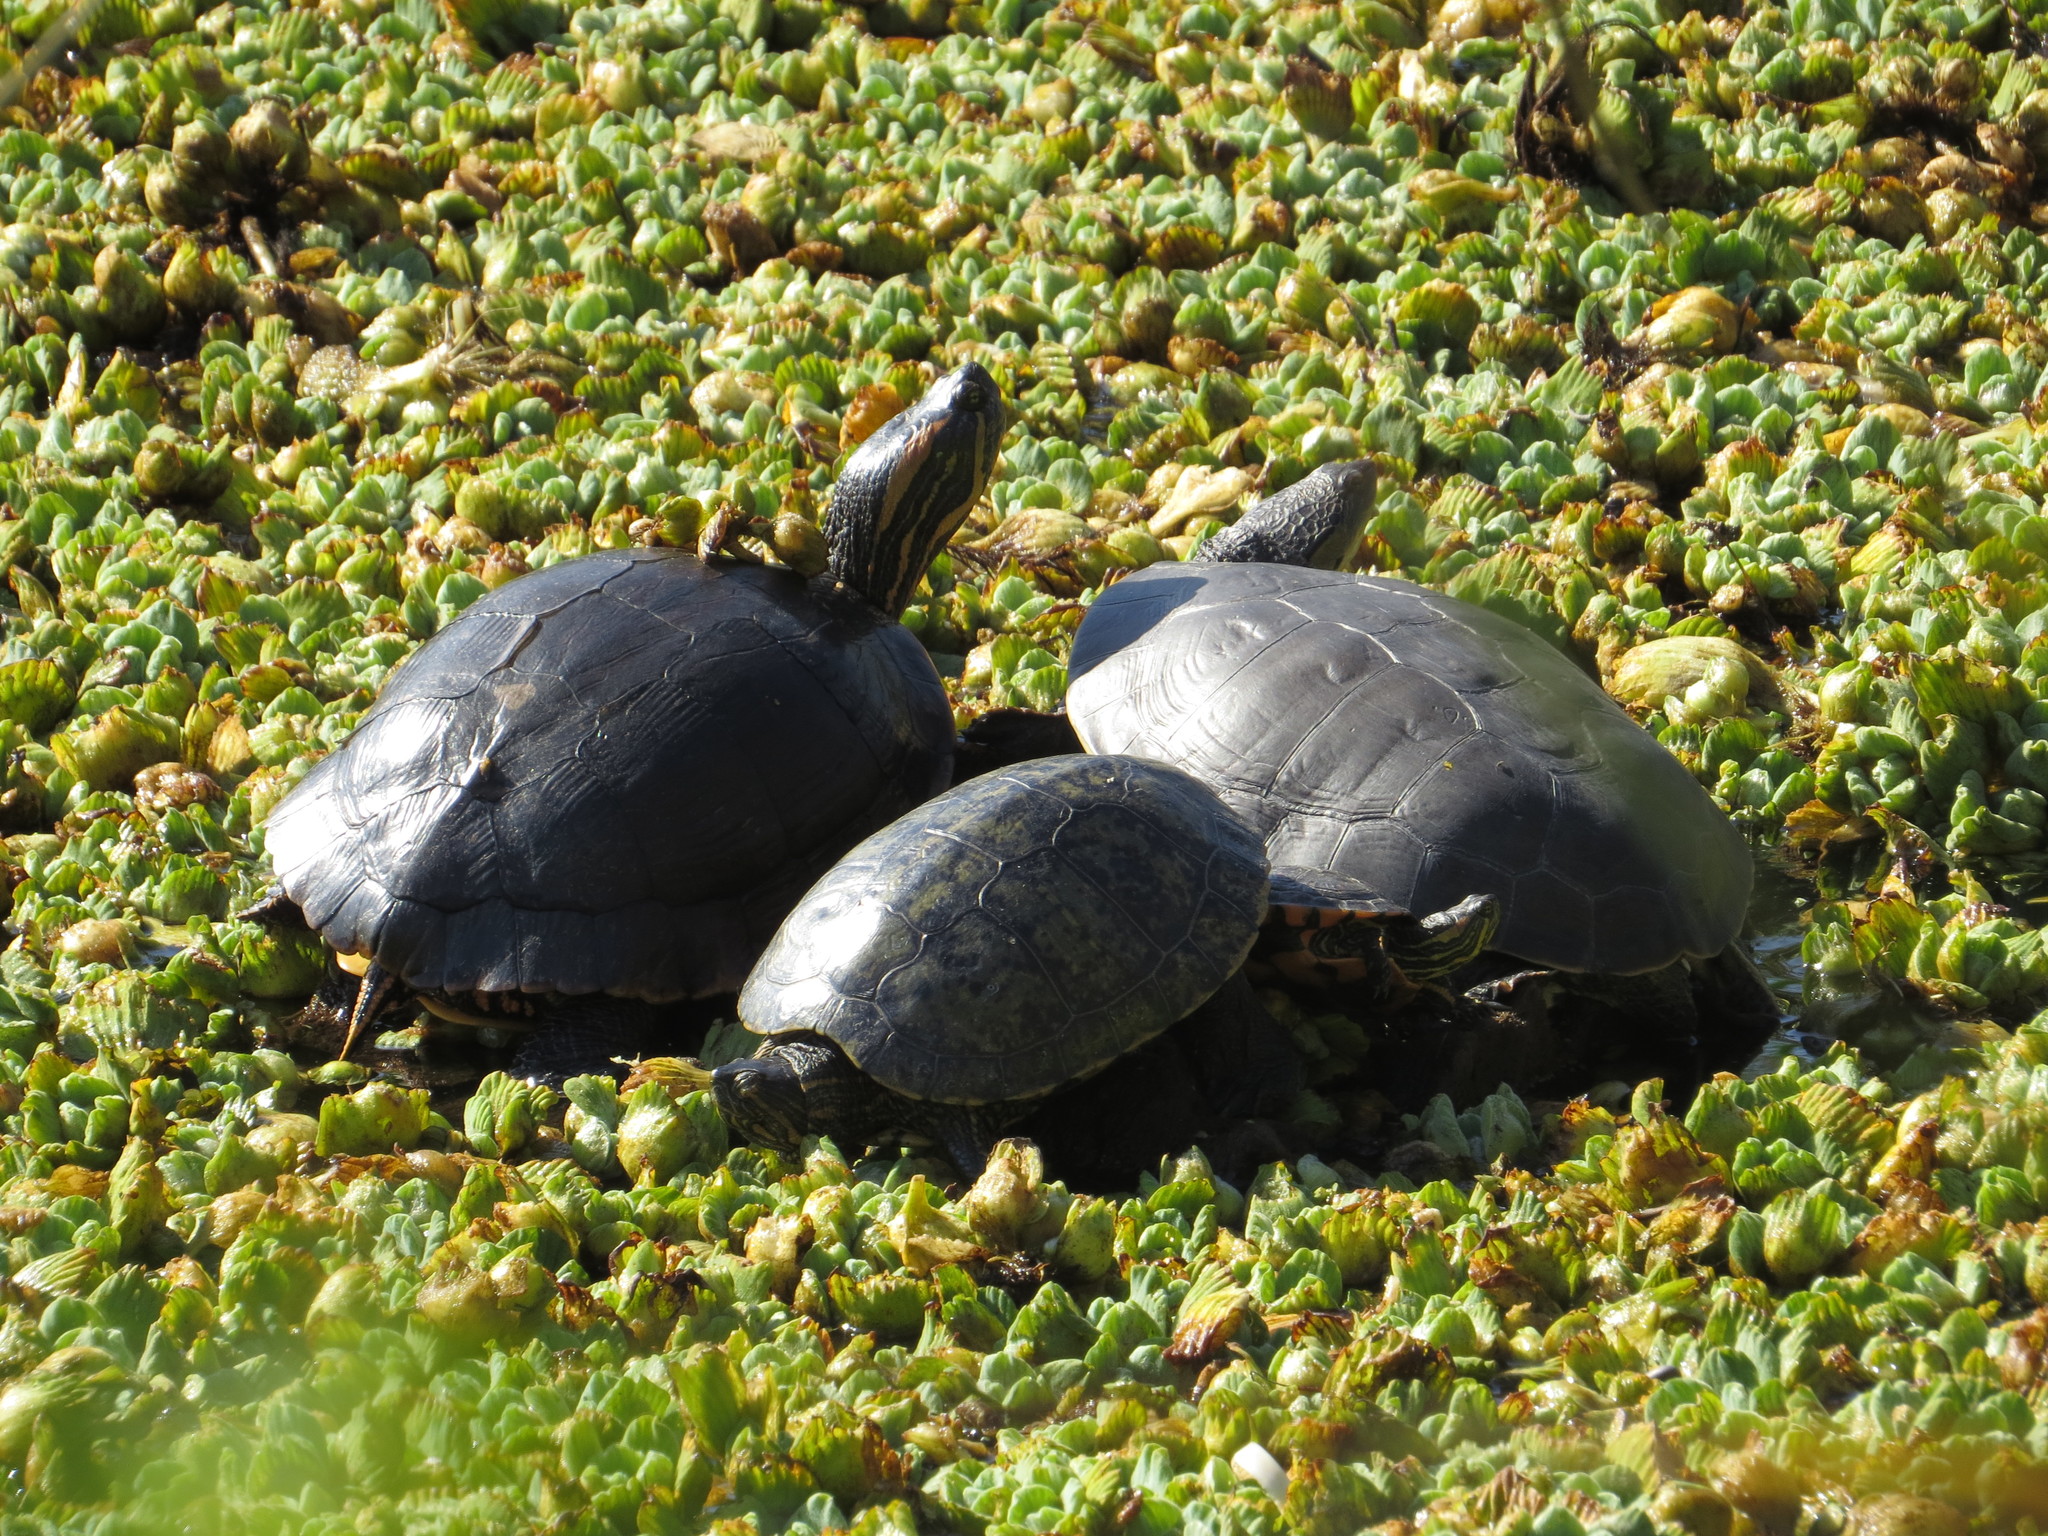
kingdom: Animalia
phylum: Chordata
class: Testudines
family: Chelidae
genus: Phrynops
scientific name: Phrynops hilarii
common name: Side-necked turtle of saint hillaire
